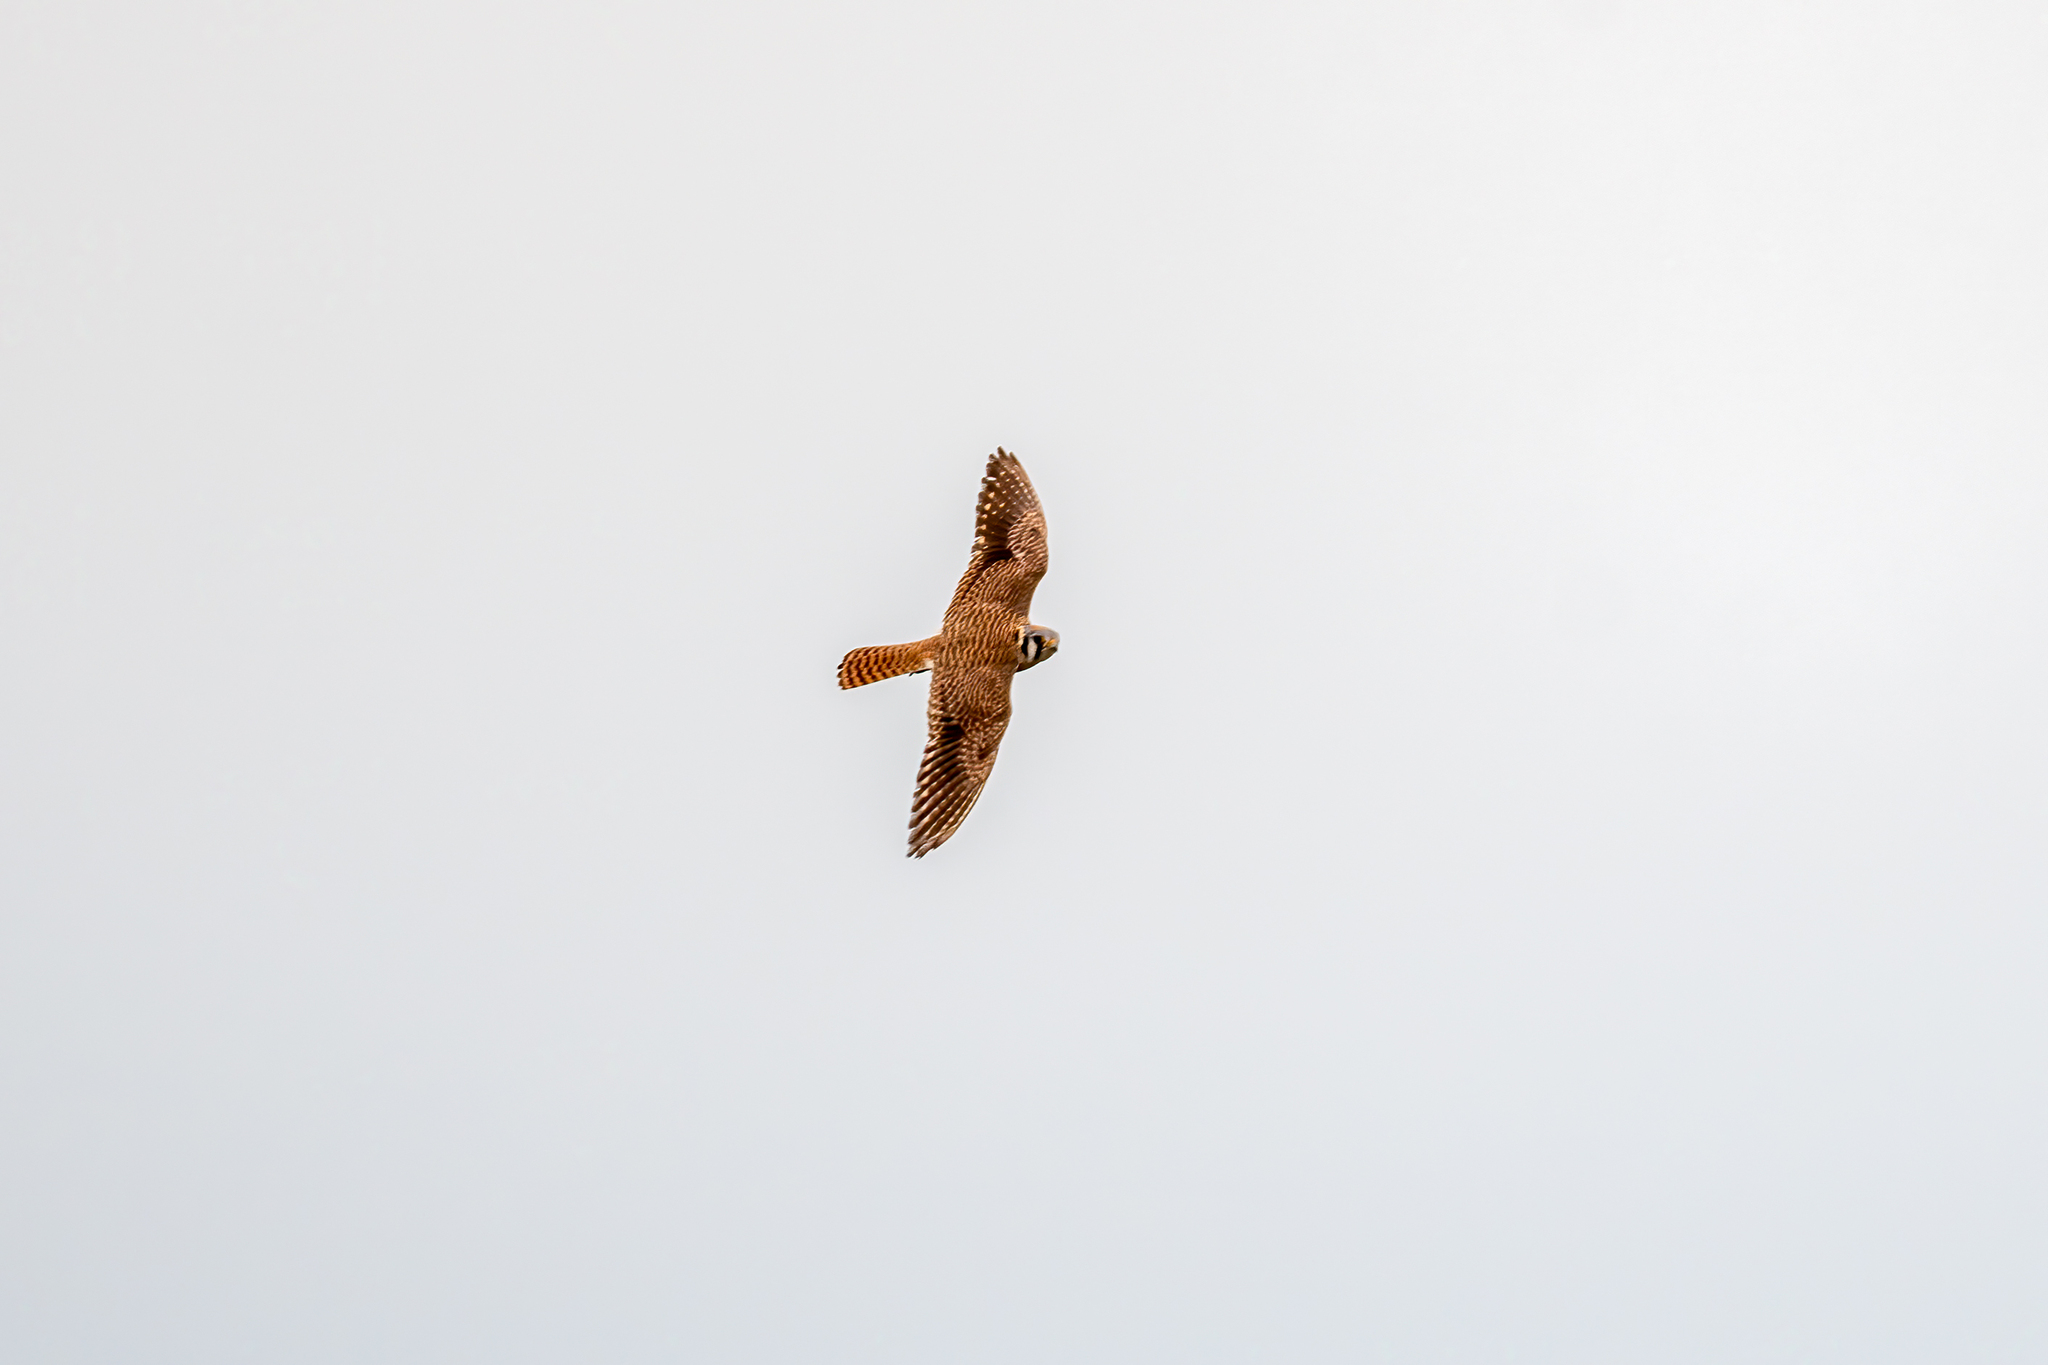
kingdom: Animalia
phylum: Chordata
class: Aves
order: Falconiformes
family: Falconidae
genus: Falco
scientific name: Falco sparverius
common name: American kestrel
